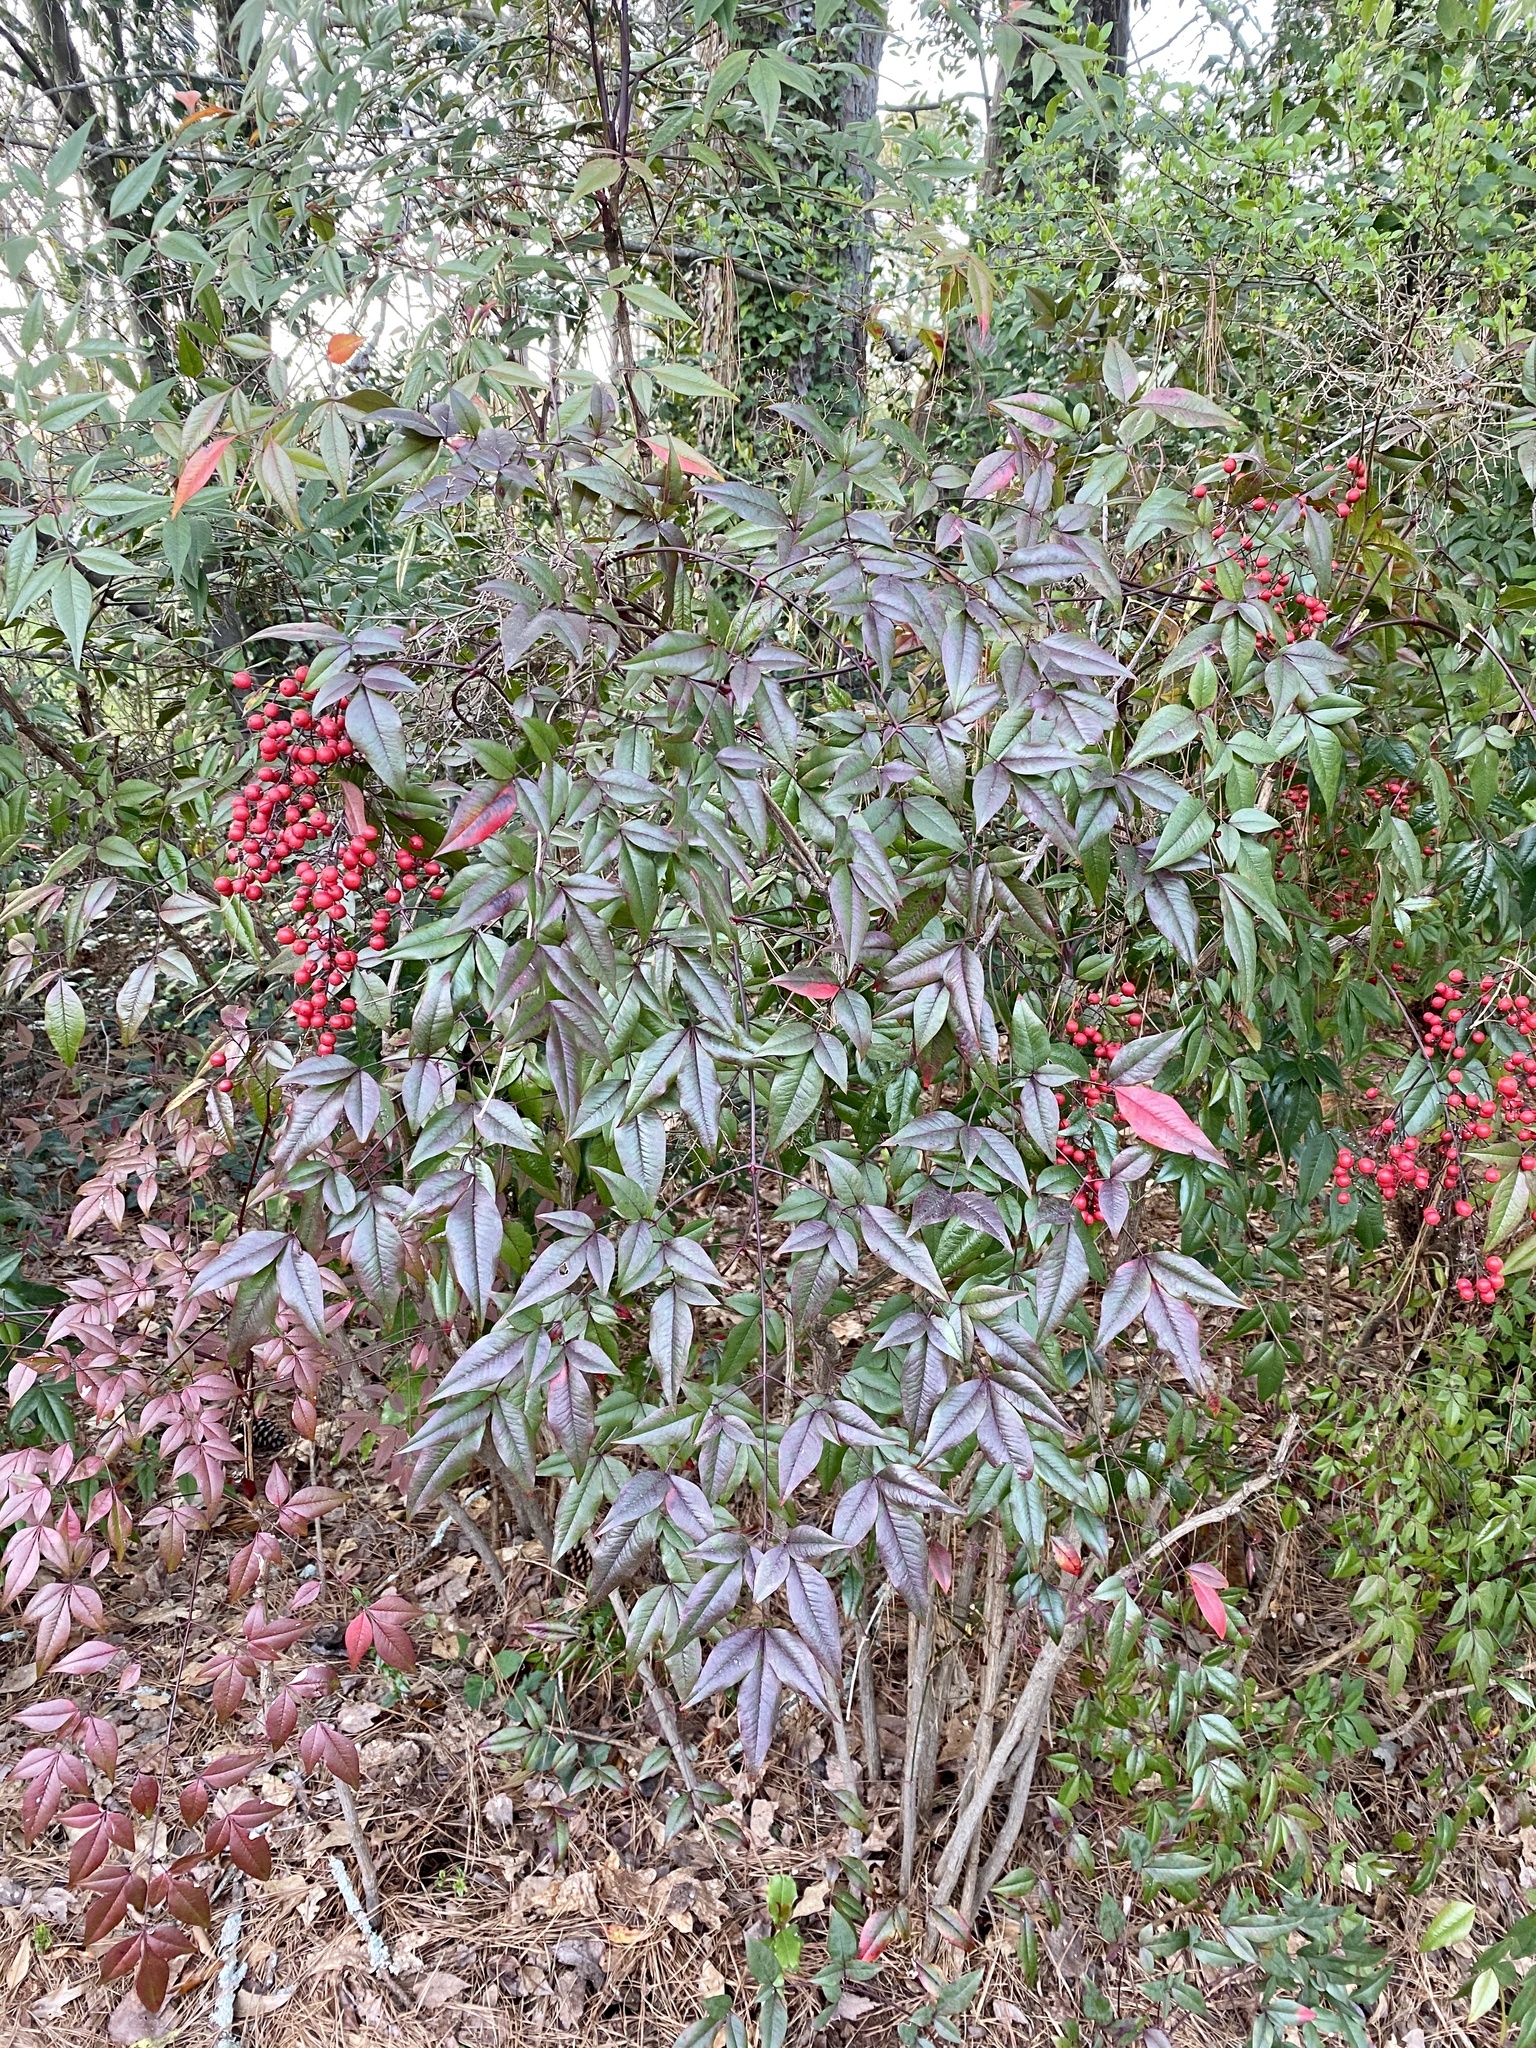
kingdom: Plantae
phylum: Tracheophyta
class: Magnoliopsida
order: Ranunculales
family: Berberidaceae
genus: Nandina
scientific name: Nandina domestica
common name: Sacred bamboo
